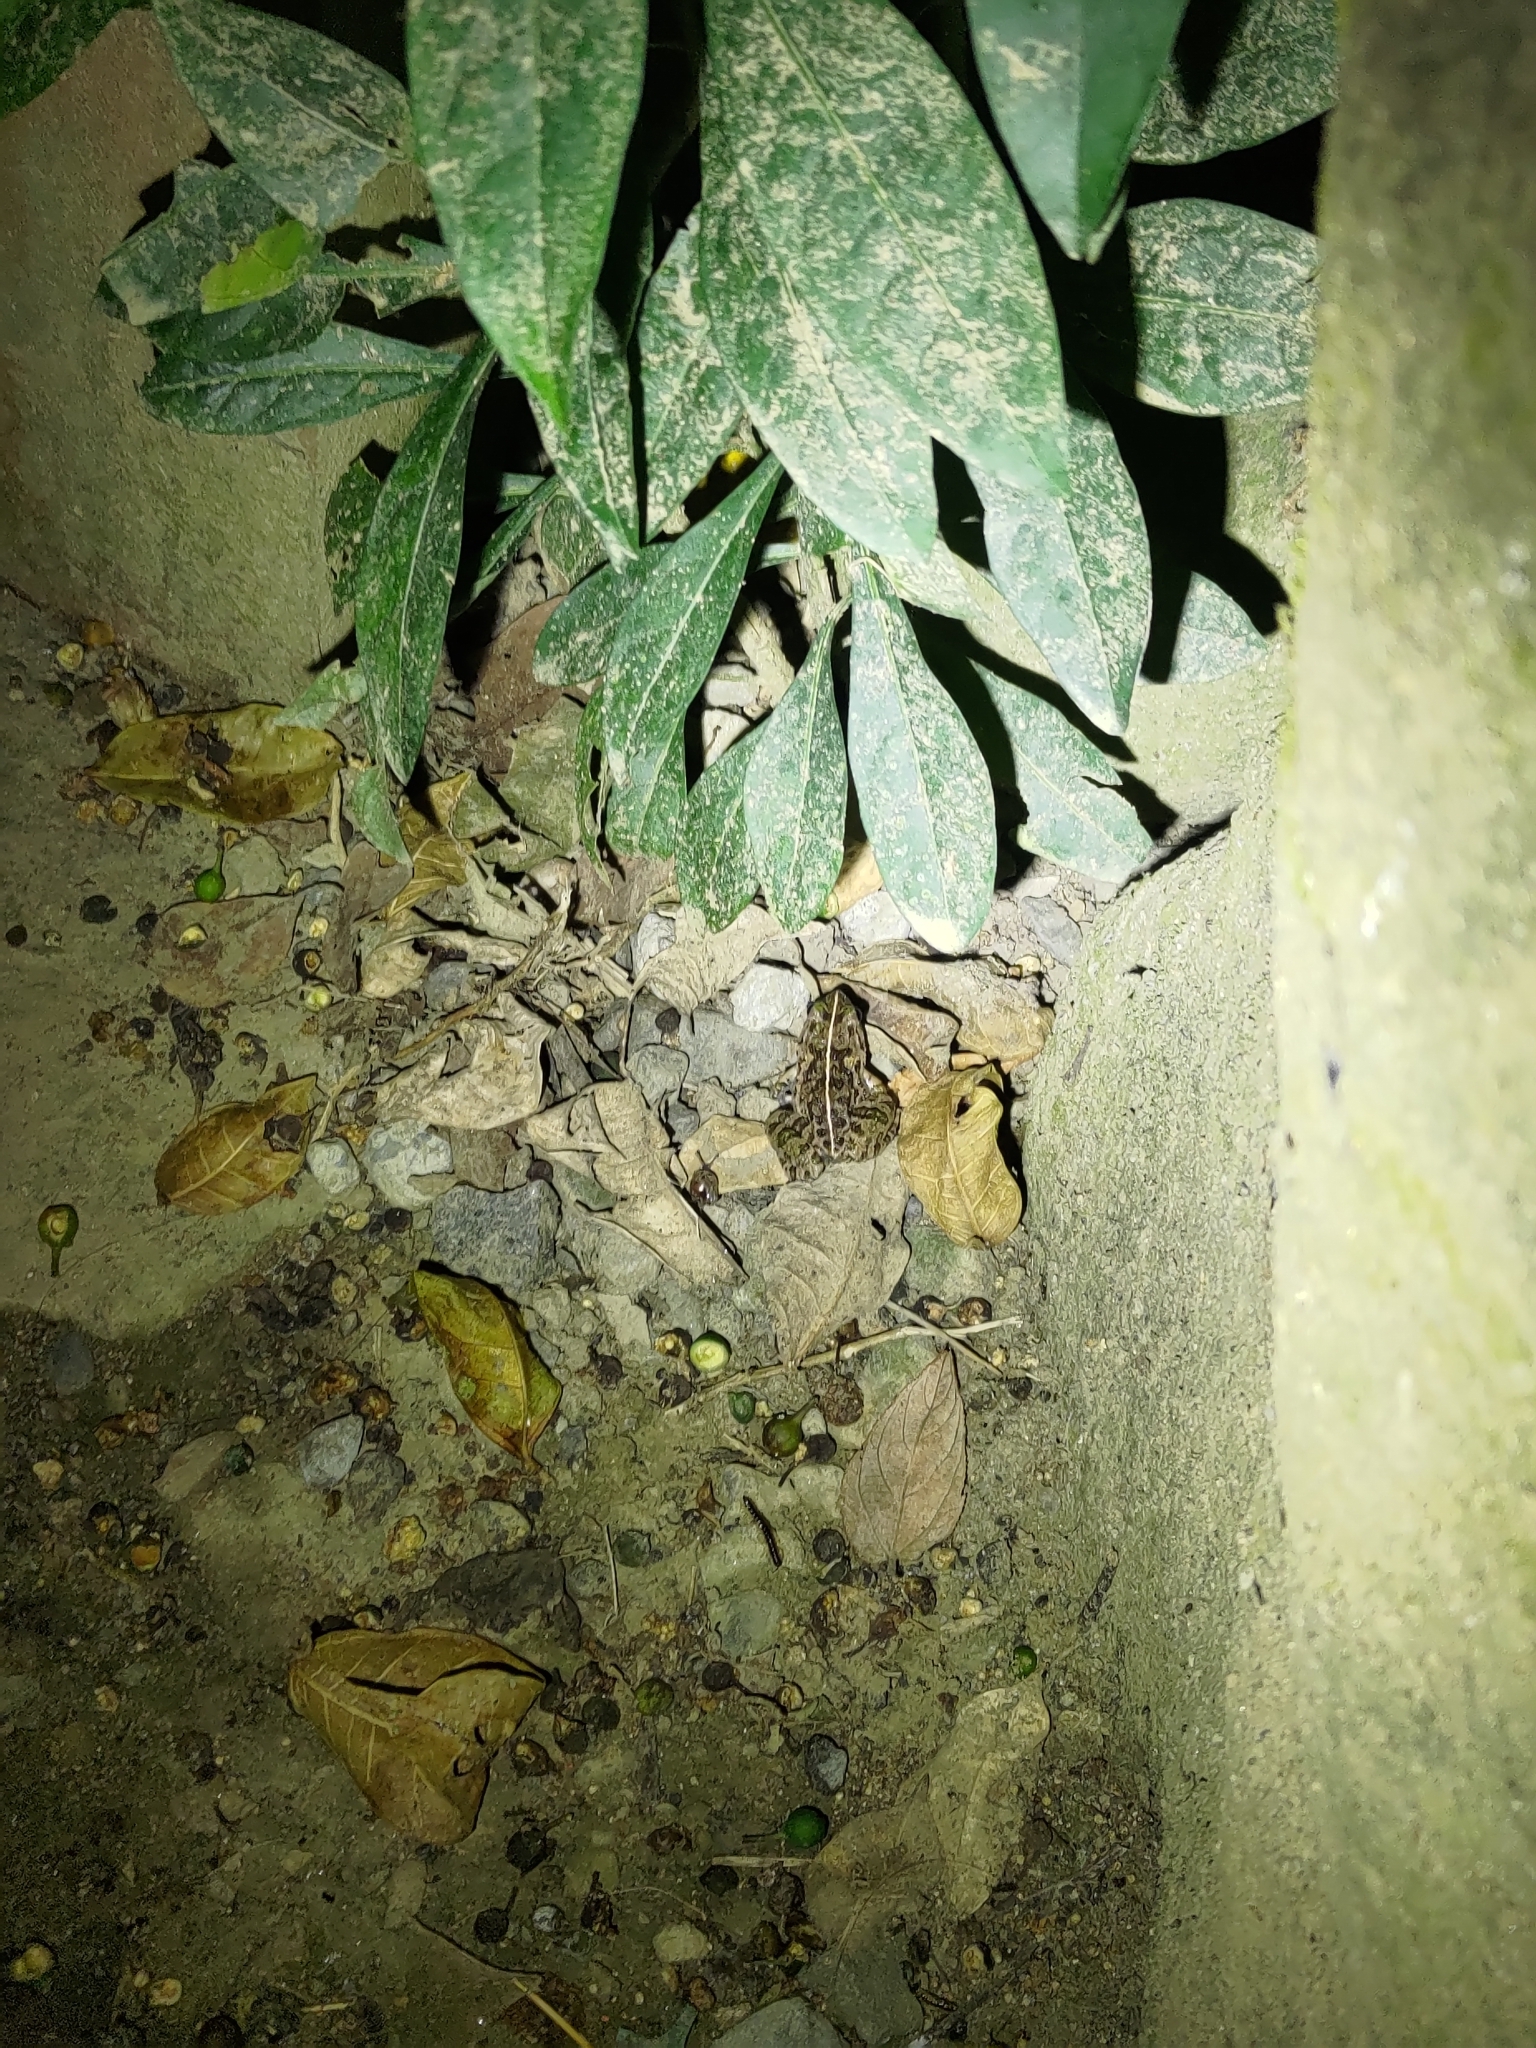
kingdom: Animalia
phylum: Chordata
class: Amphibia
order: Anura
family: Dicroglossidae
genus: Fejervarya
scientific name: Fejervarya limnocharis
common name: Asian grass frog/common pond frog/field frog/grass frog/indian rice frog
